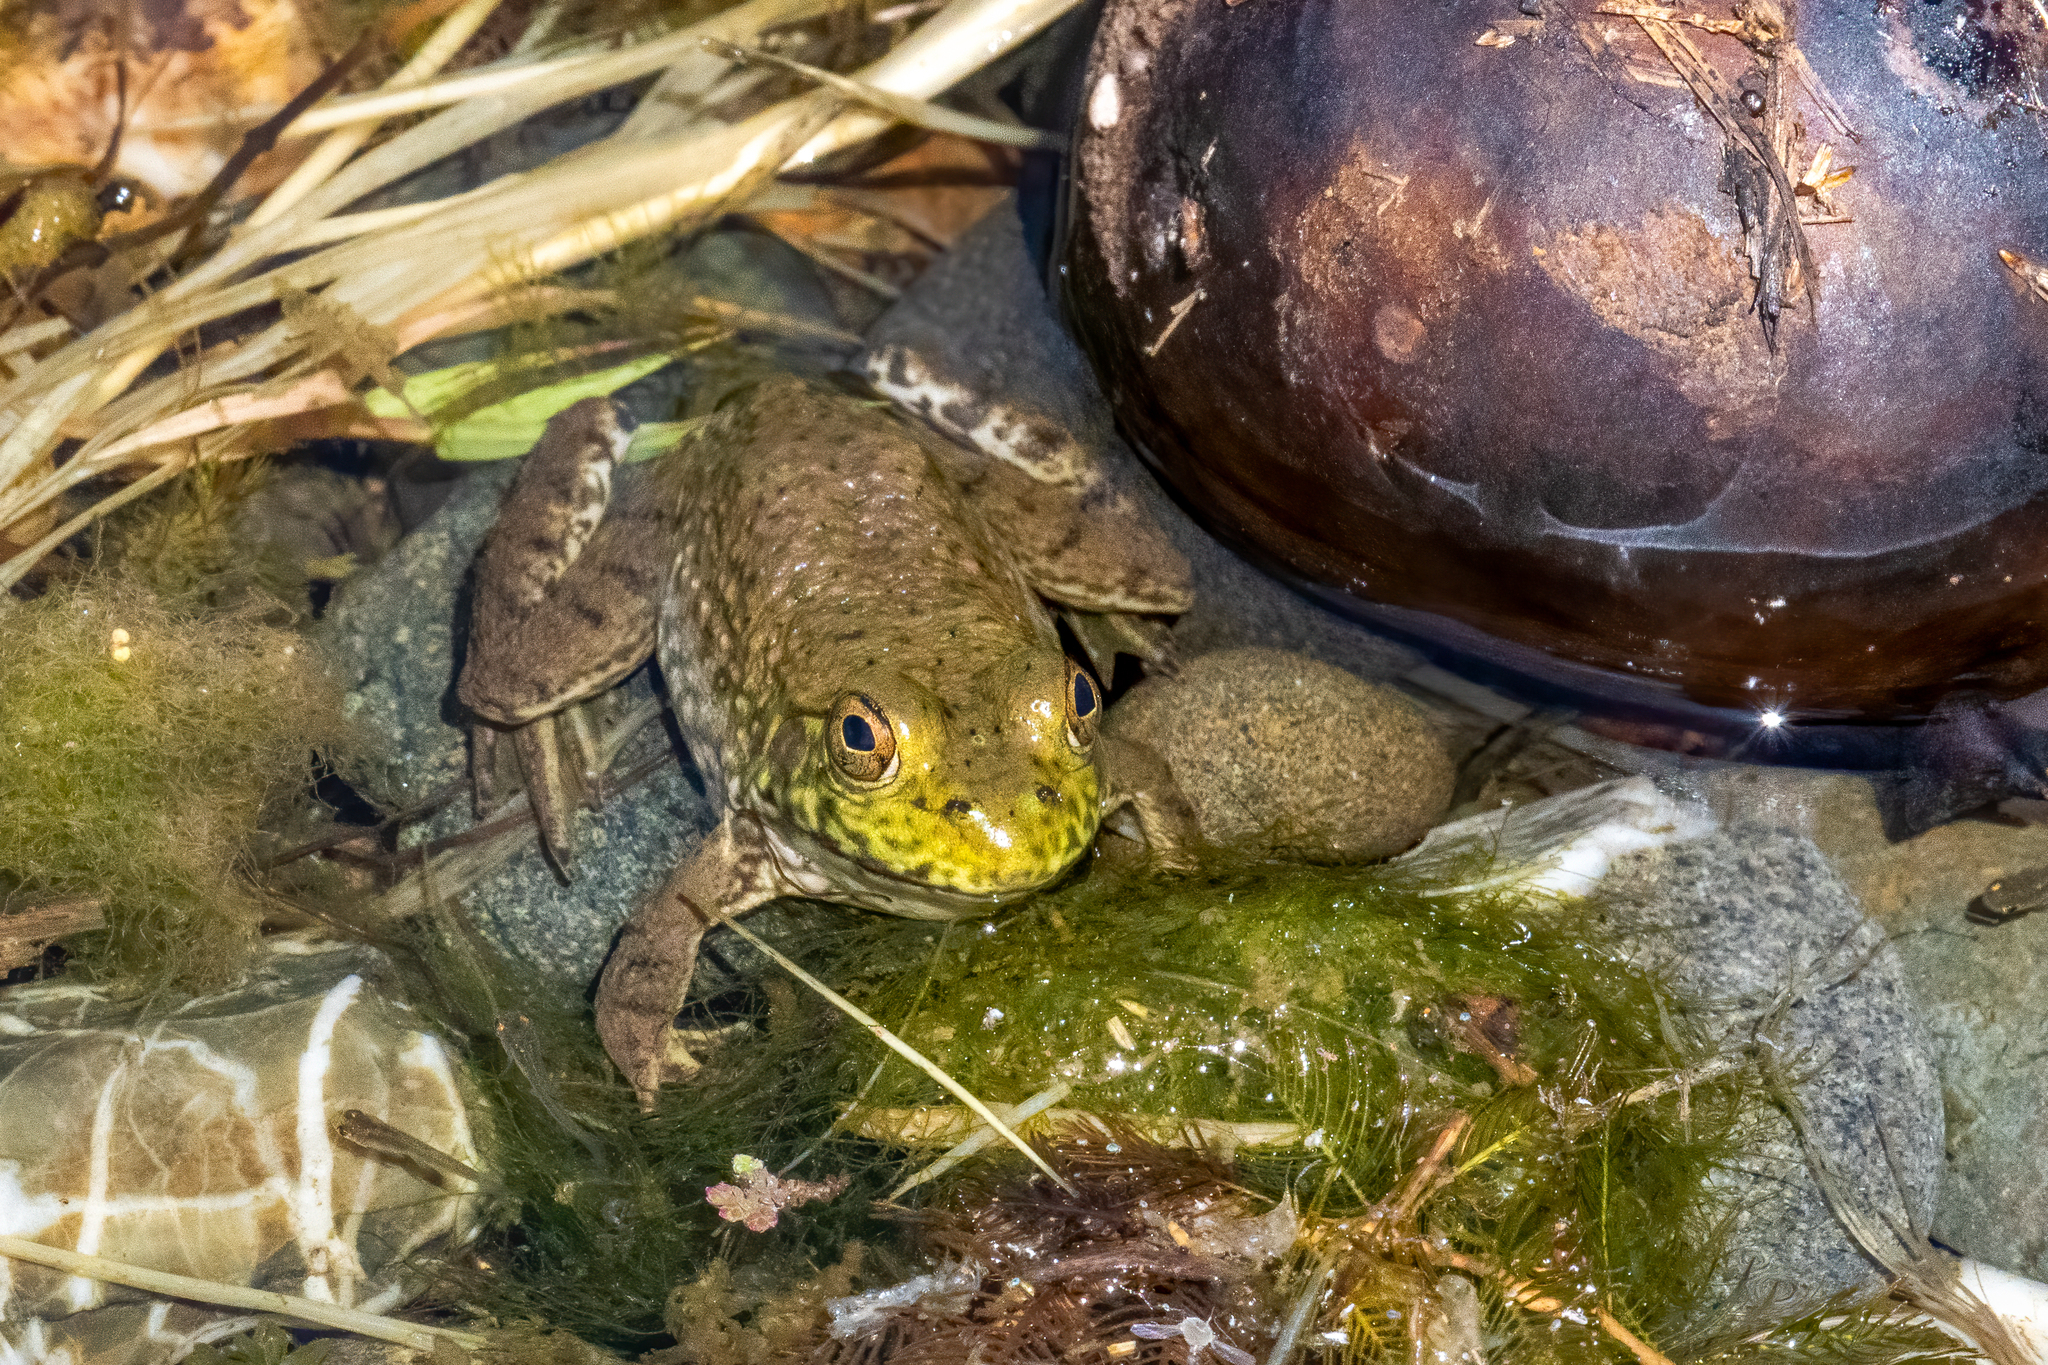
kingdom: Animalia
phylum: Chordata
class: Amphibia
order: Anura
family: Ranidae
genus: Lithobates
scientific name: Lithobates catesbeianus
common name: American bullfrog
